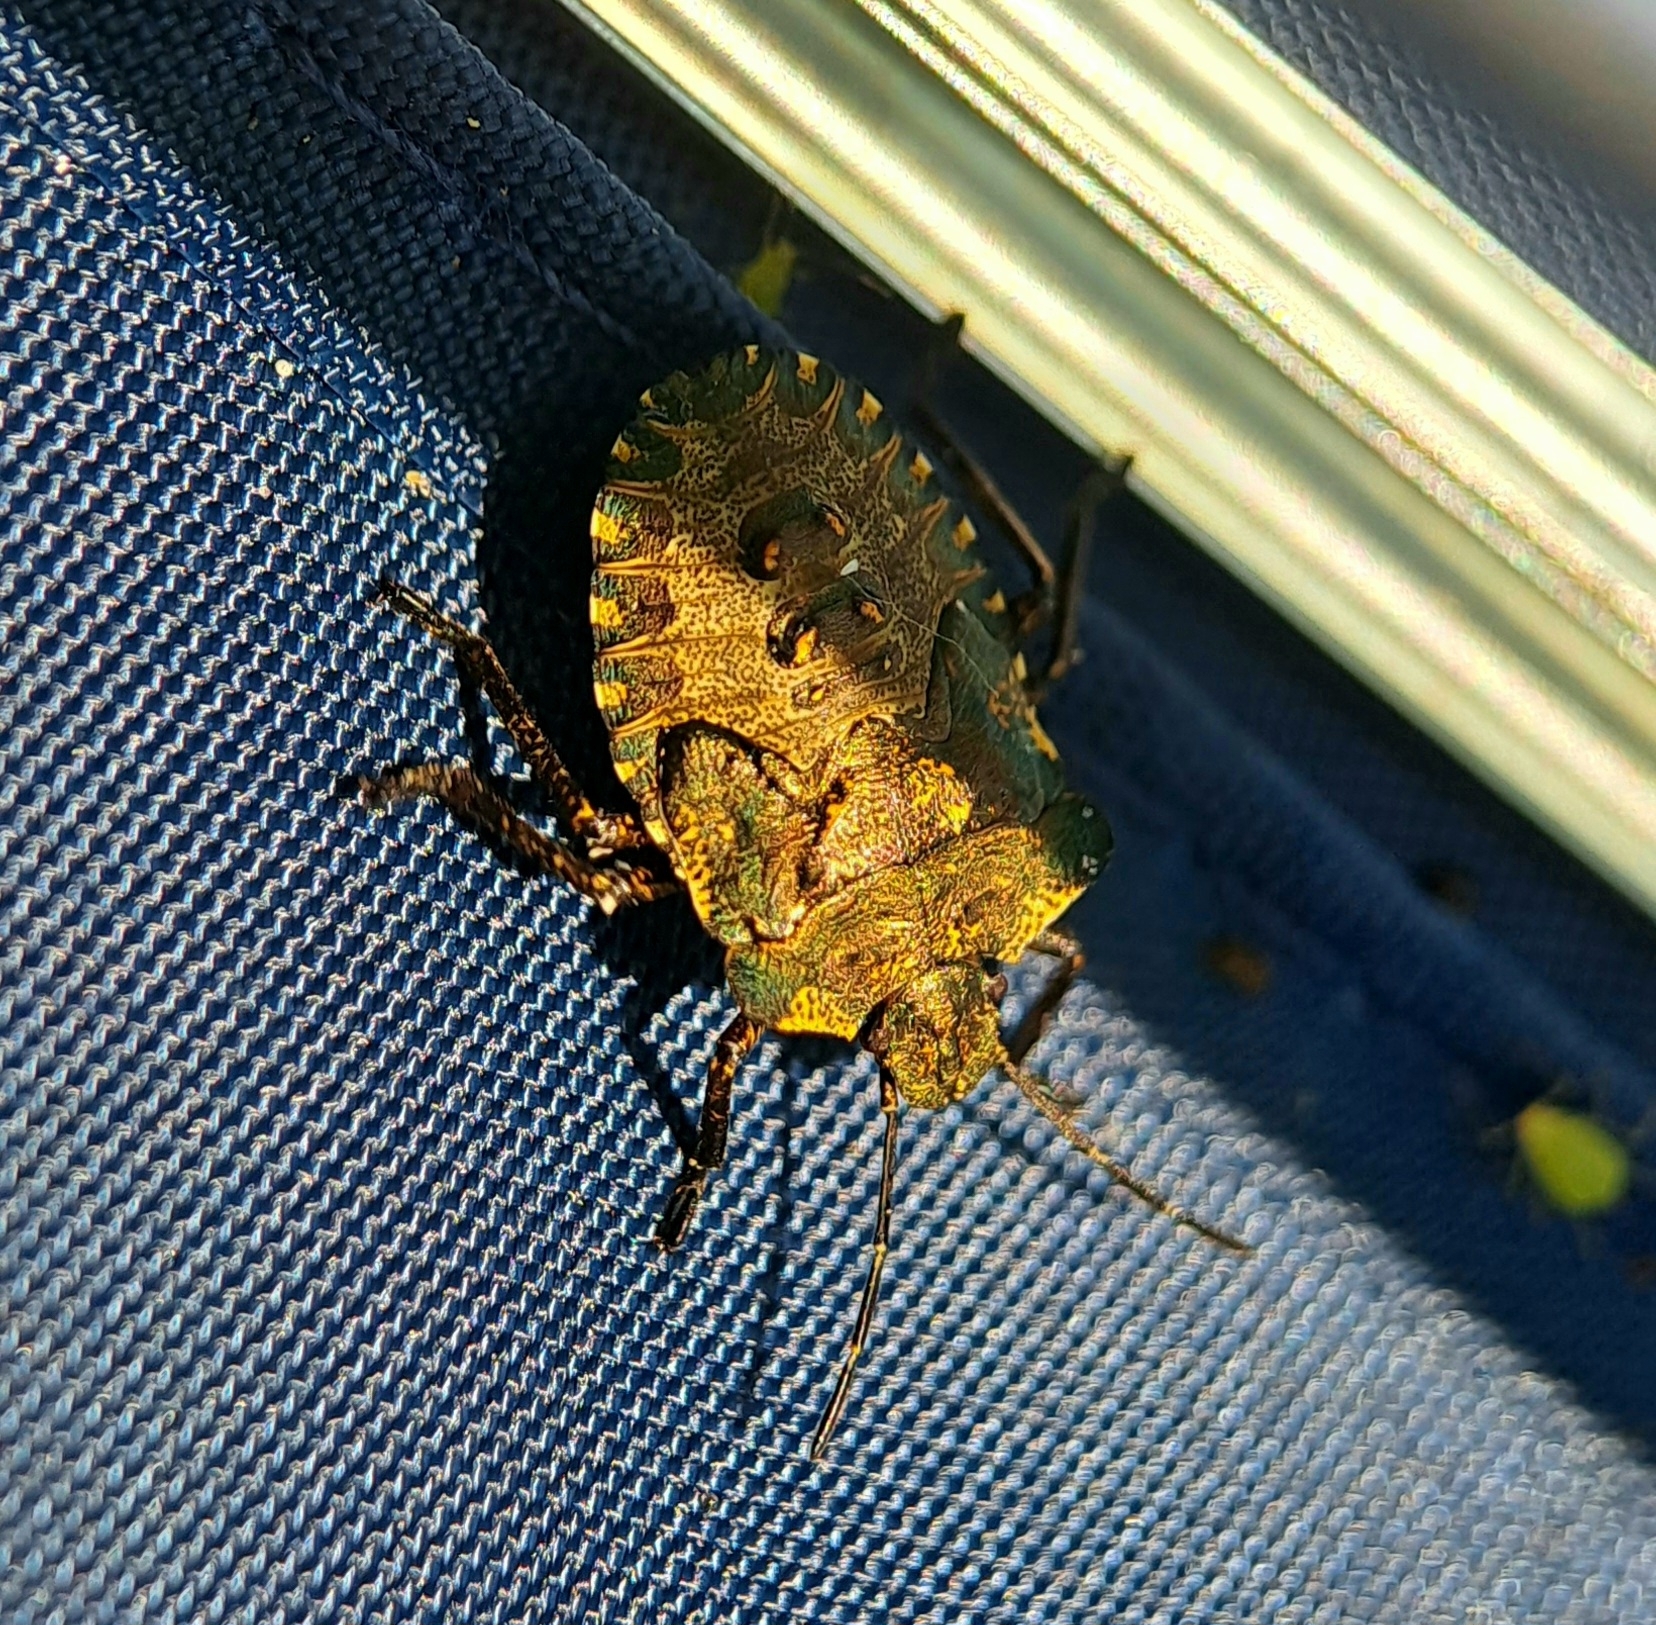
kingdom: Animalia
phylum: Arthropoda
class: Insecta
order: Hemiptera
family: Pentatomidae
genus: Pentatoma
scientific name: Pentatoma rufipes
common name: Forest bug
